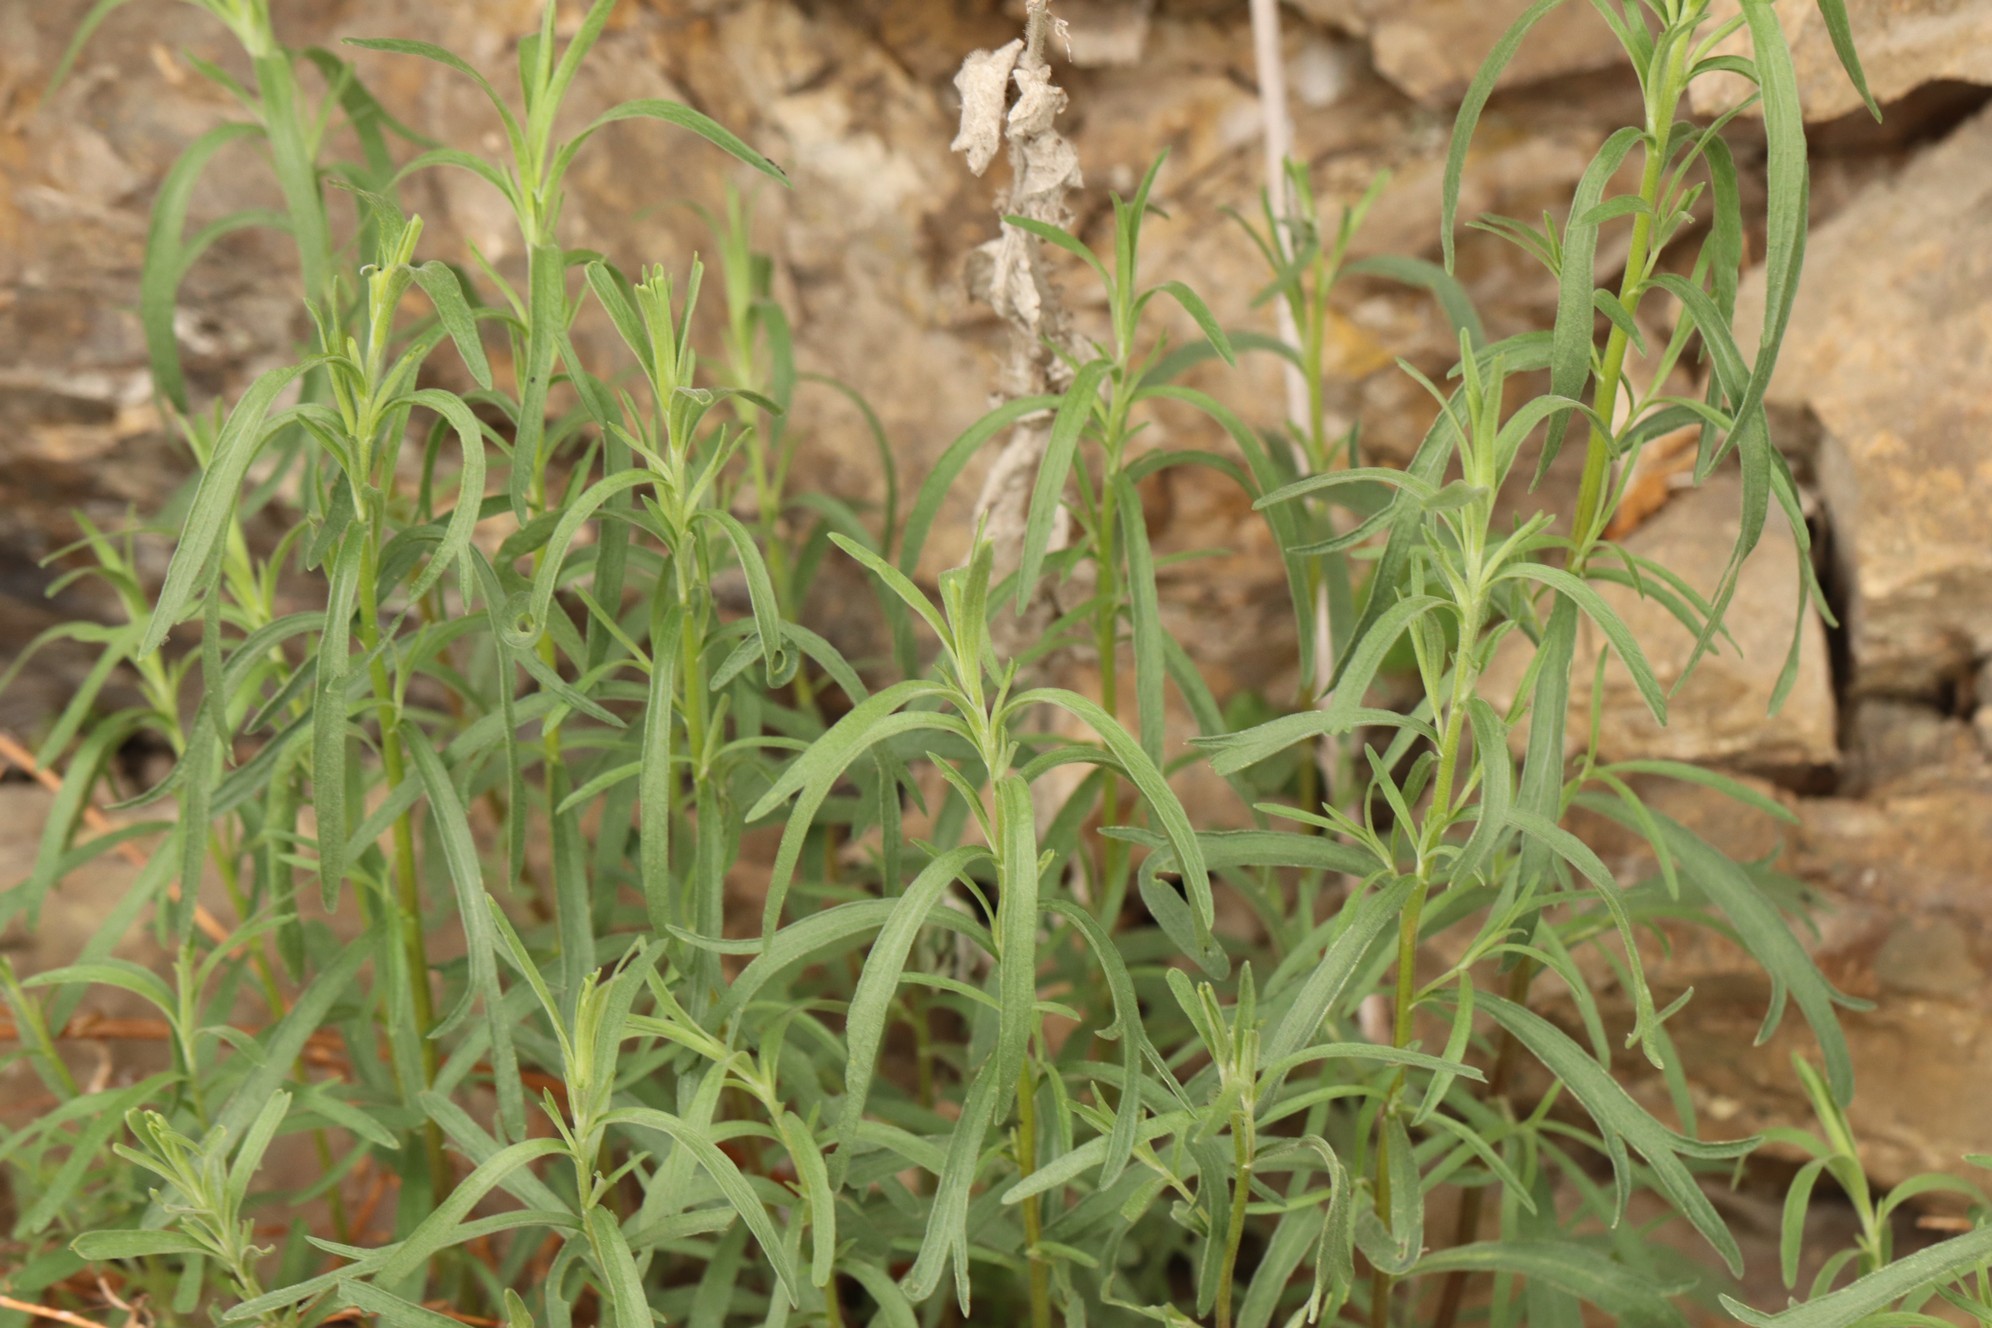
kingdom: Plantae
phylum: Tracheophyta
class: Magnoliopsida
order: Asterales
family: Asteraceae
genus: Artemisia
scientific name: Artemisia dracunculus
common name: Tarragon
